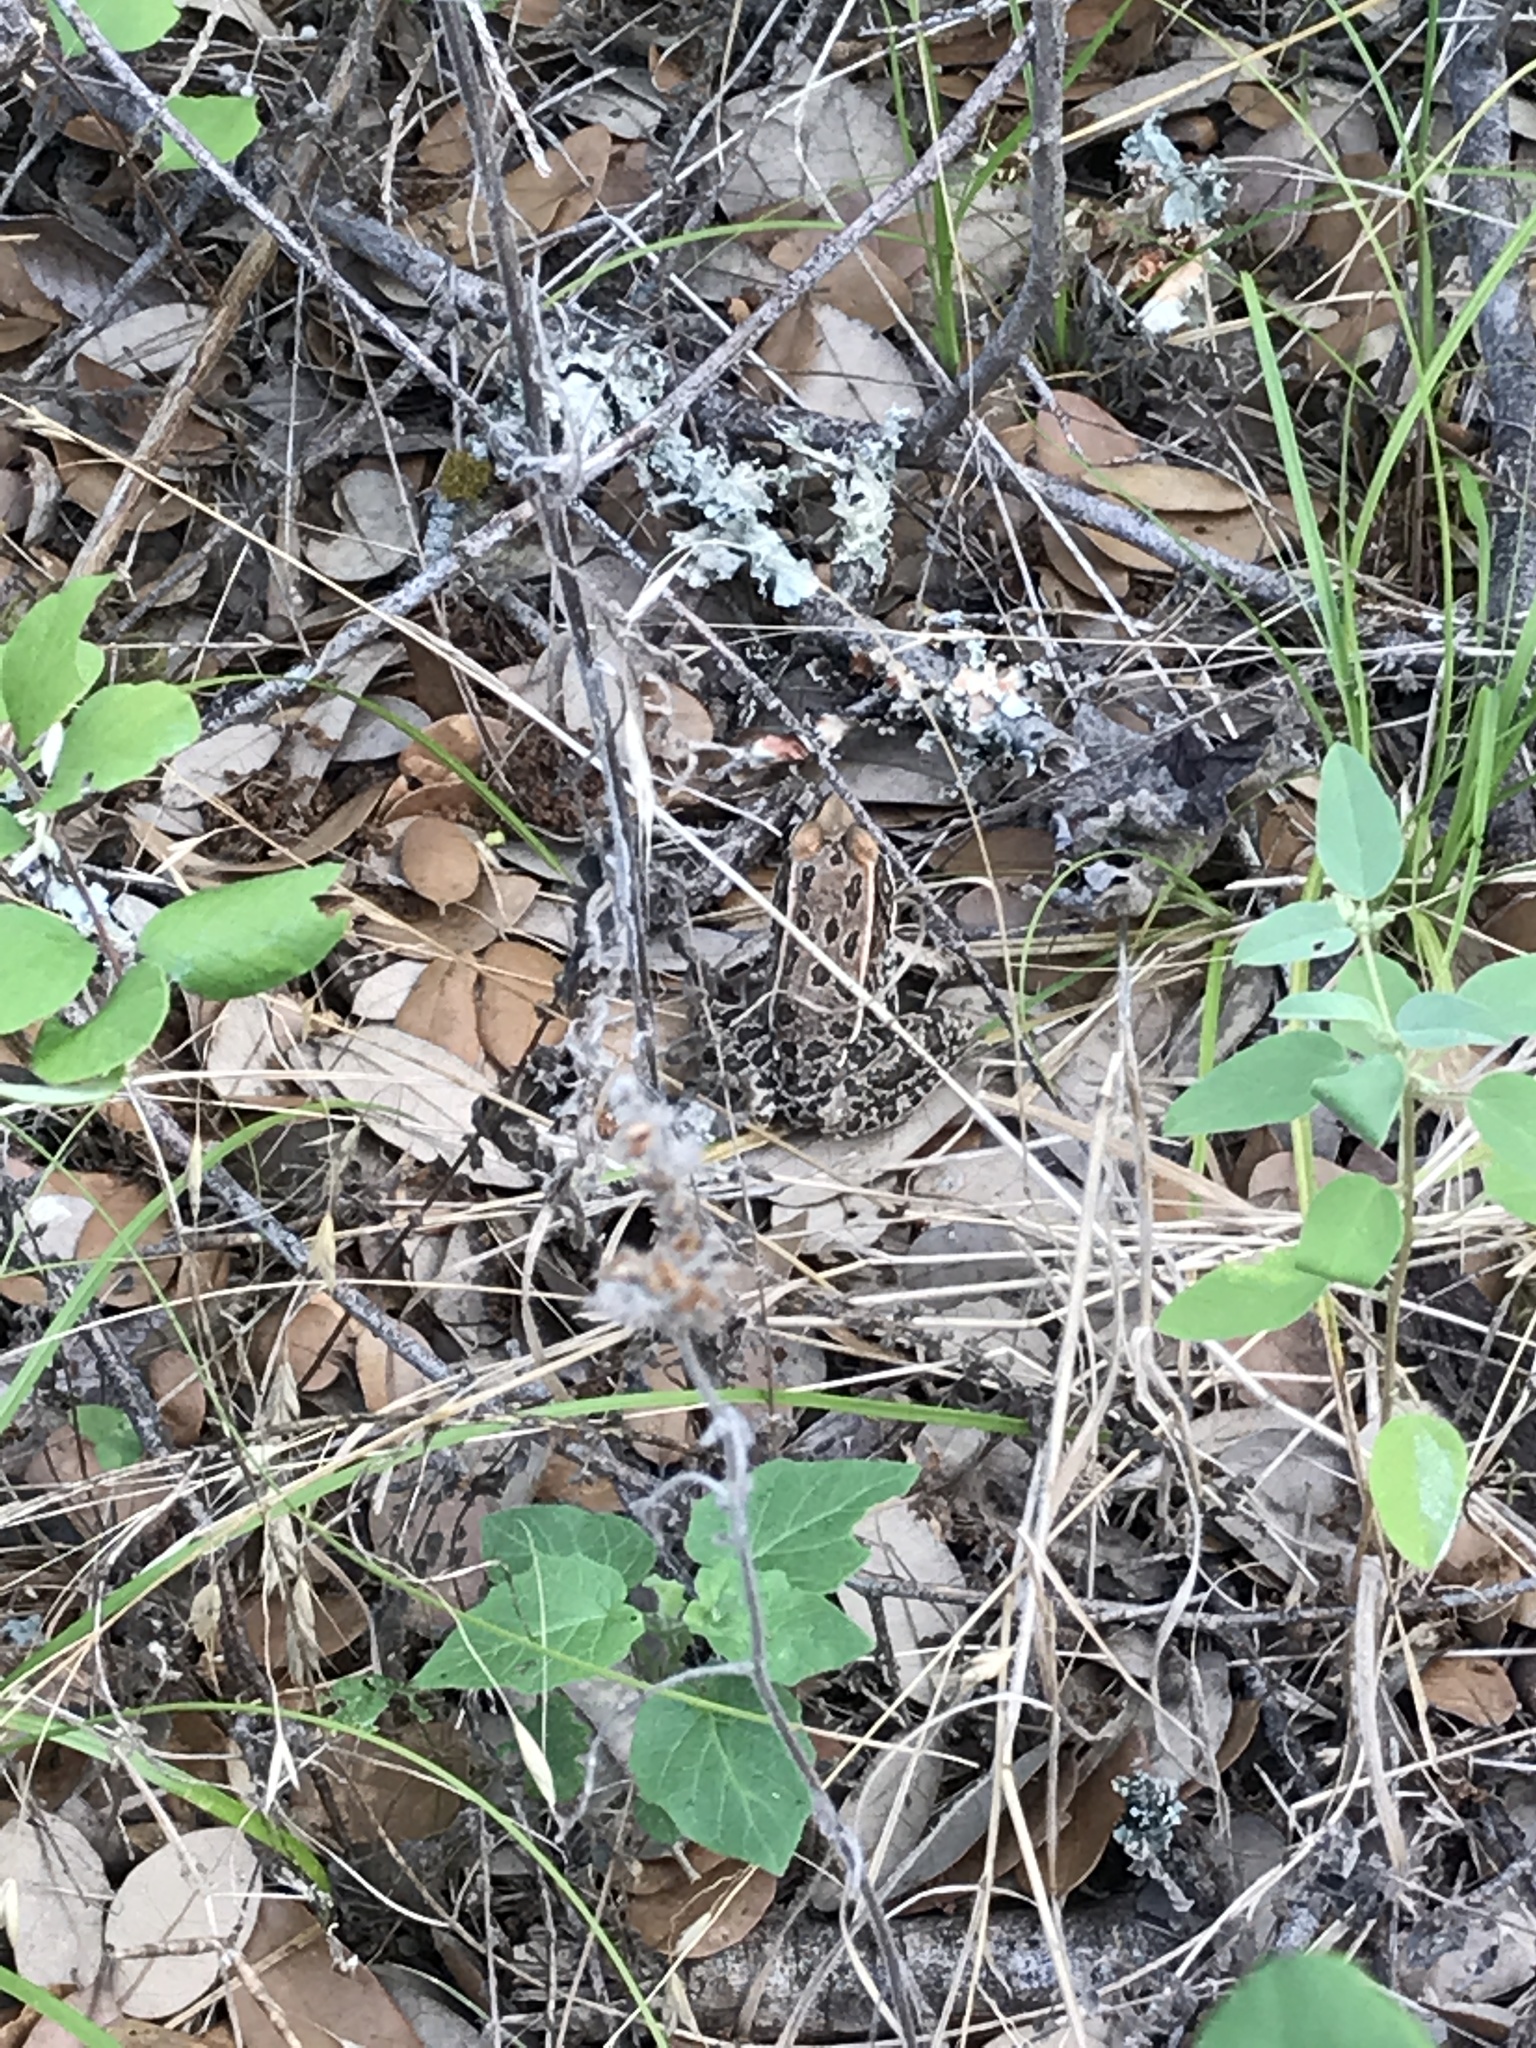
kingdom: Animalia
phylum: Chordata
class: Amphibia
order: Anura
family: Ranidae
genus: Lithobates
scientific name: Lithobates berlandieri
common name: Rio grande leopard frog
